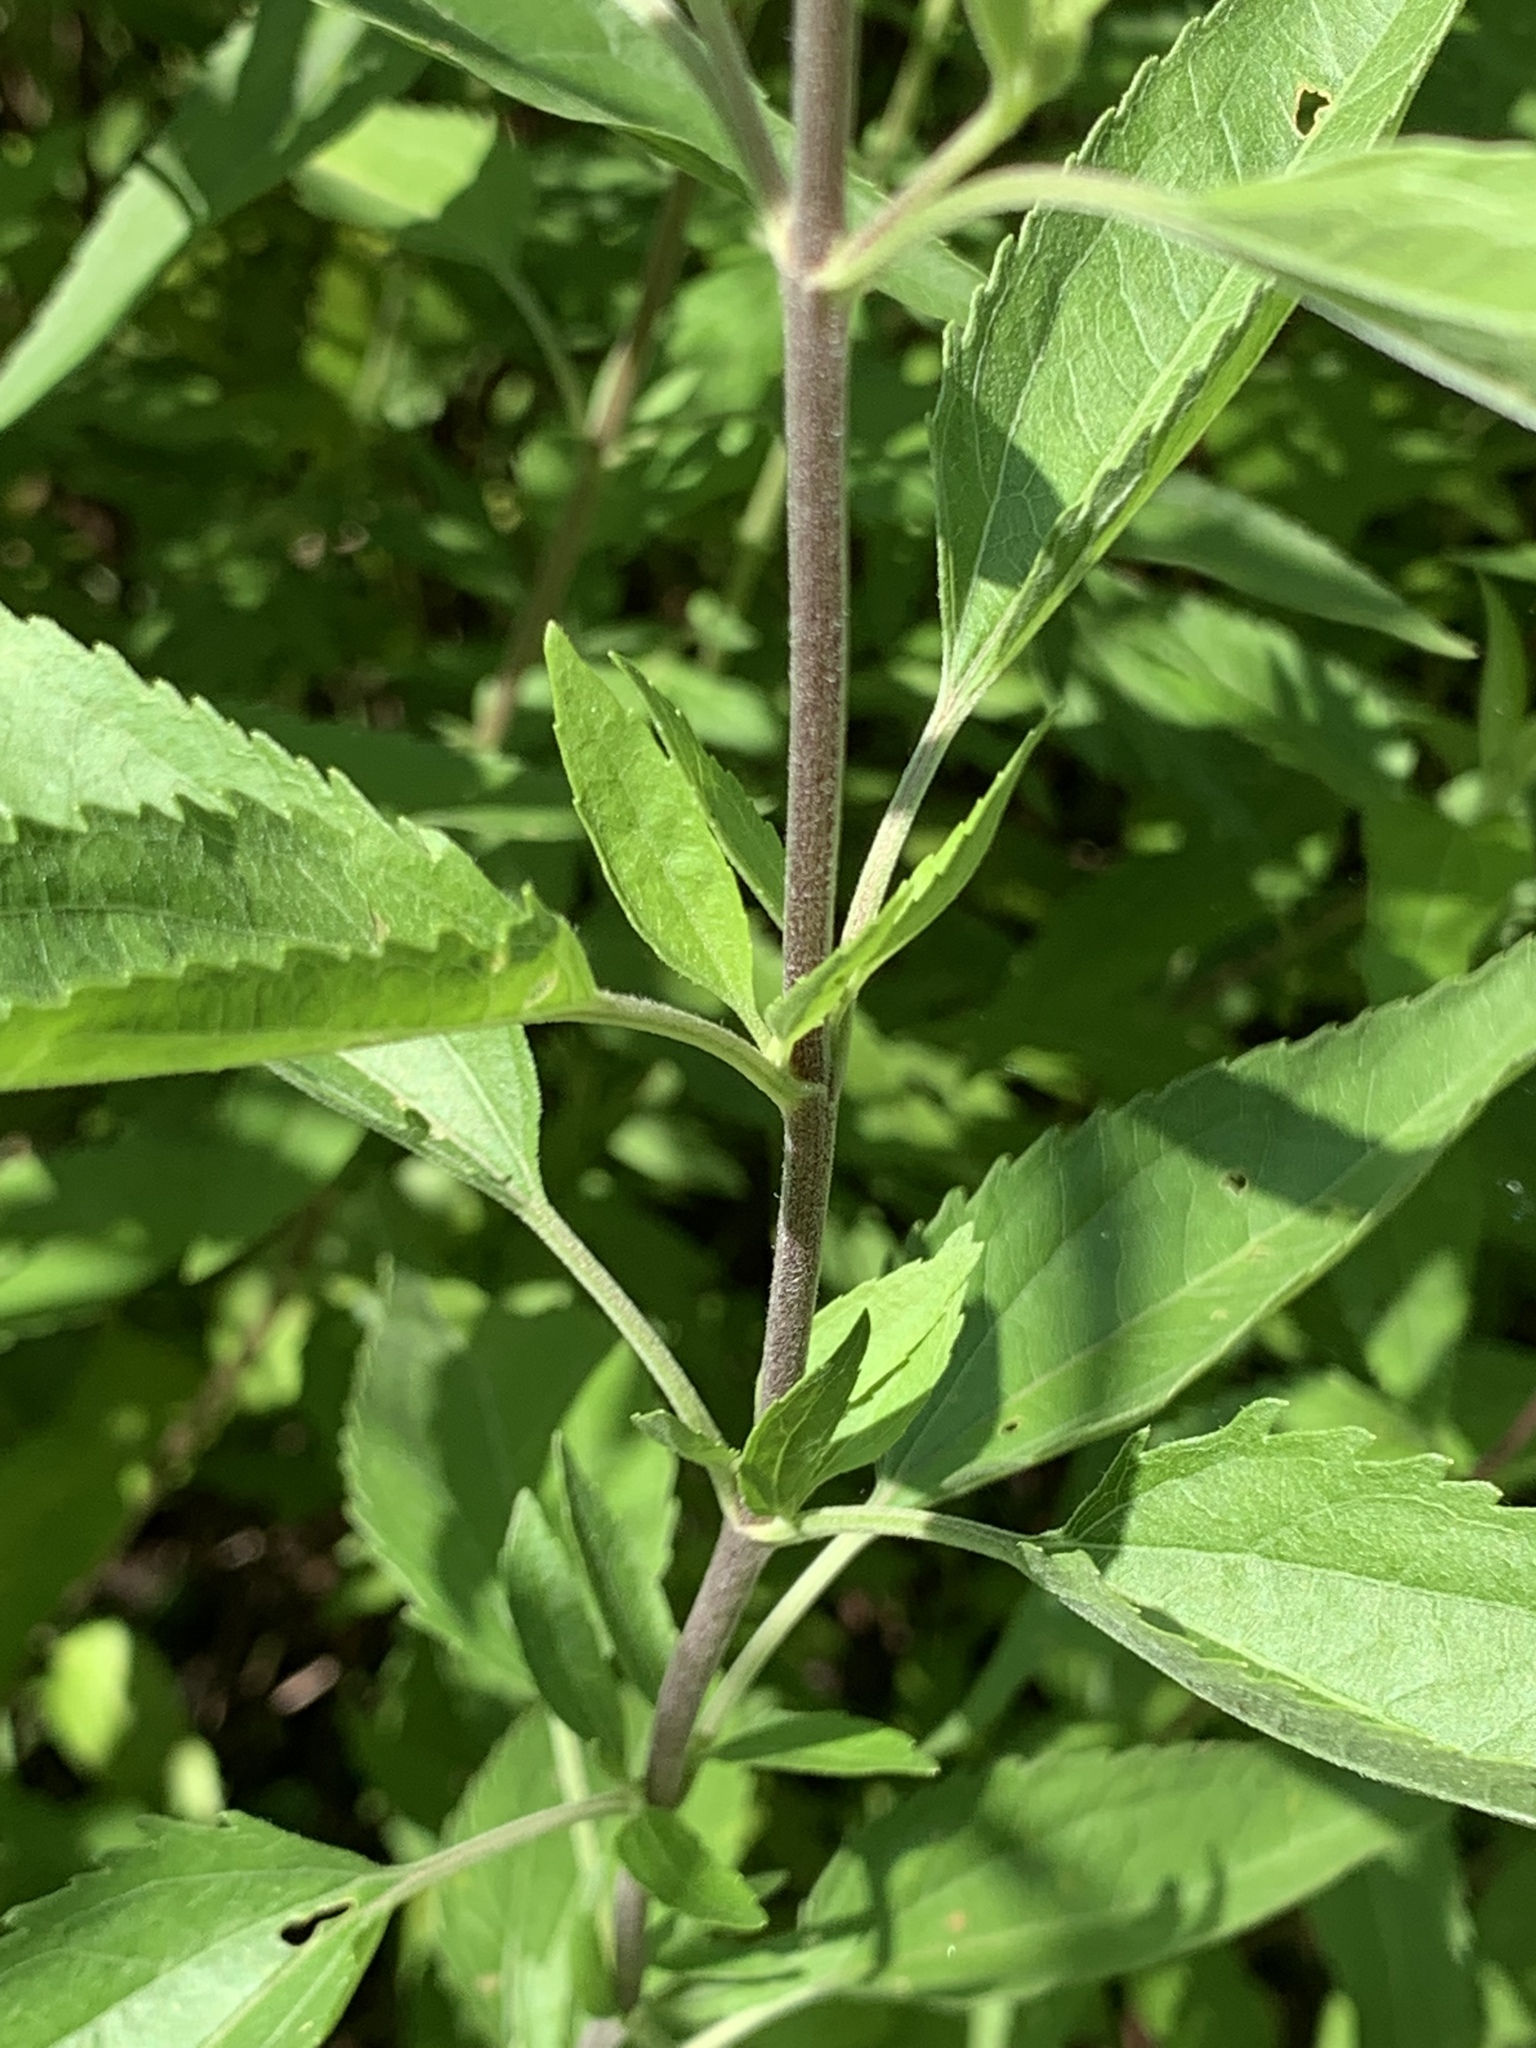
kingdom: Plantae
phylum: Tracheophyta
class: Magnoliopsida
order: Asterales
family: Asteraceae
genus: Eupatorium
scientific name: Eupatorium serotinum
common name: Late boneset
